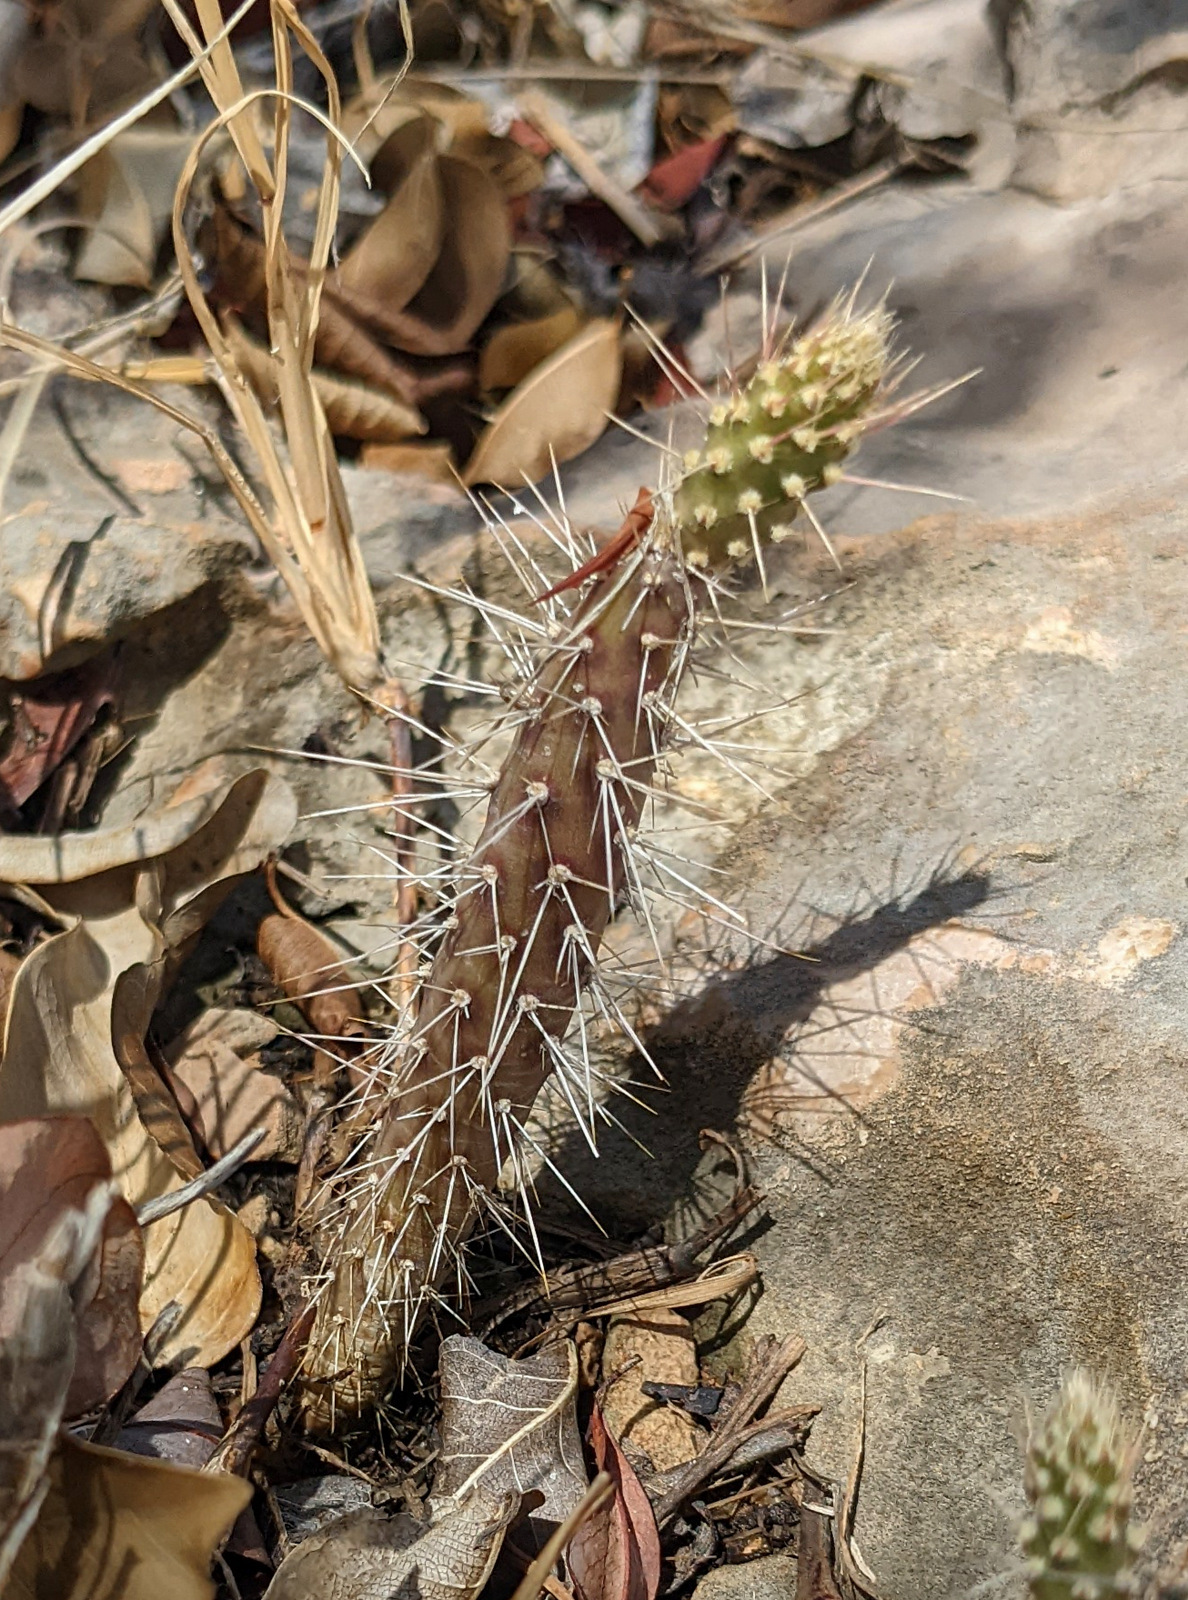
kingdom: Plantae
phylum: Tracheophyta
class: Magnoliopsida
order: Caryophyllales
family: Cactaceae
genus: Opuntia
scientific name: Opuntia repens
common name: Roving pricklypear
